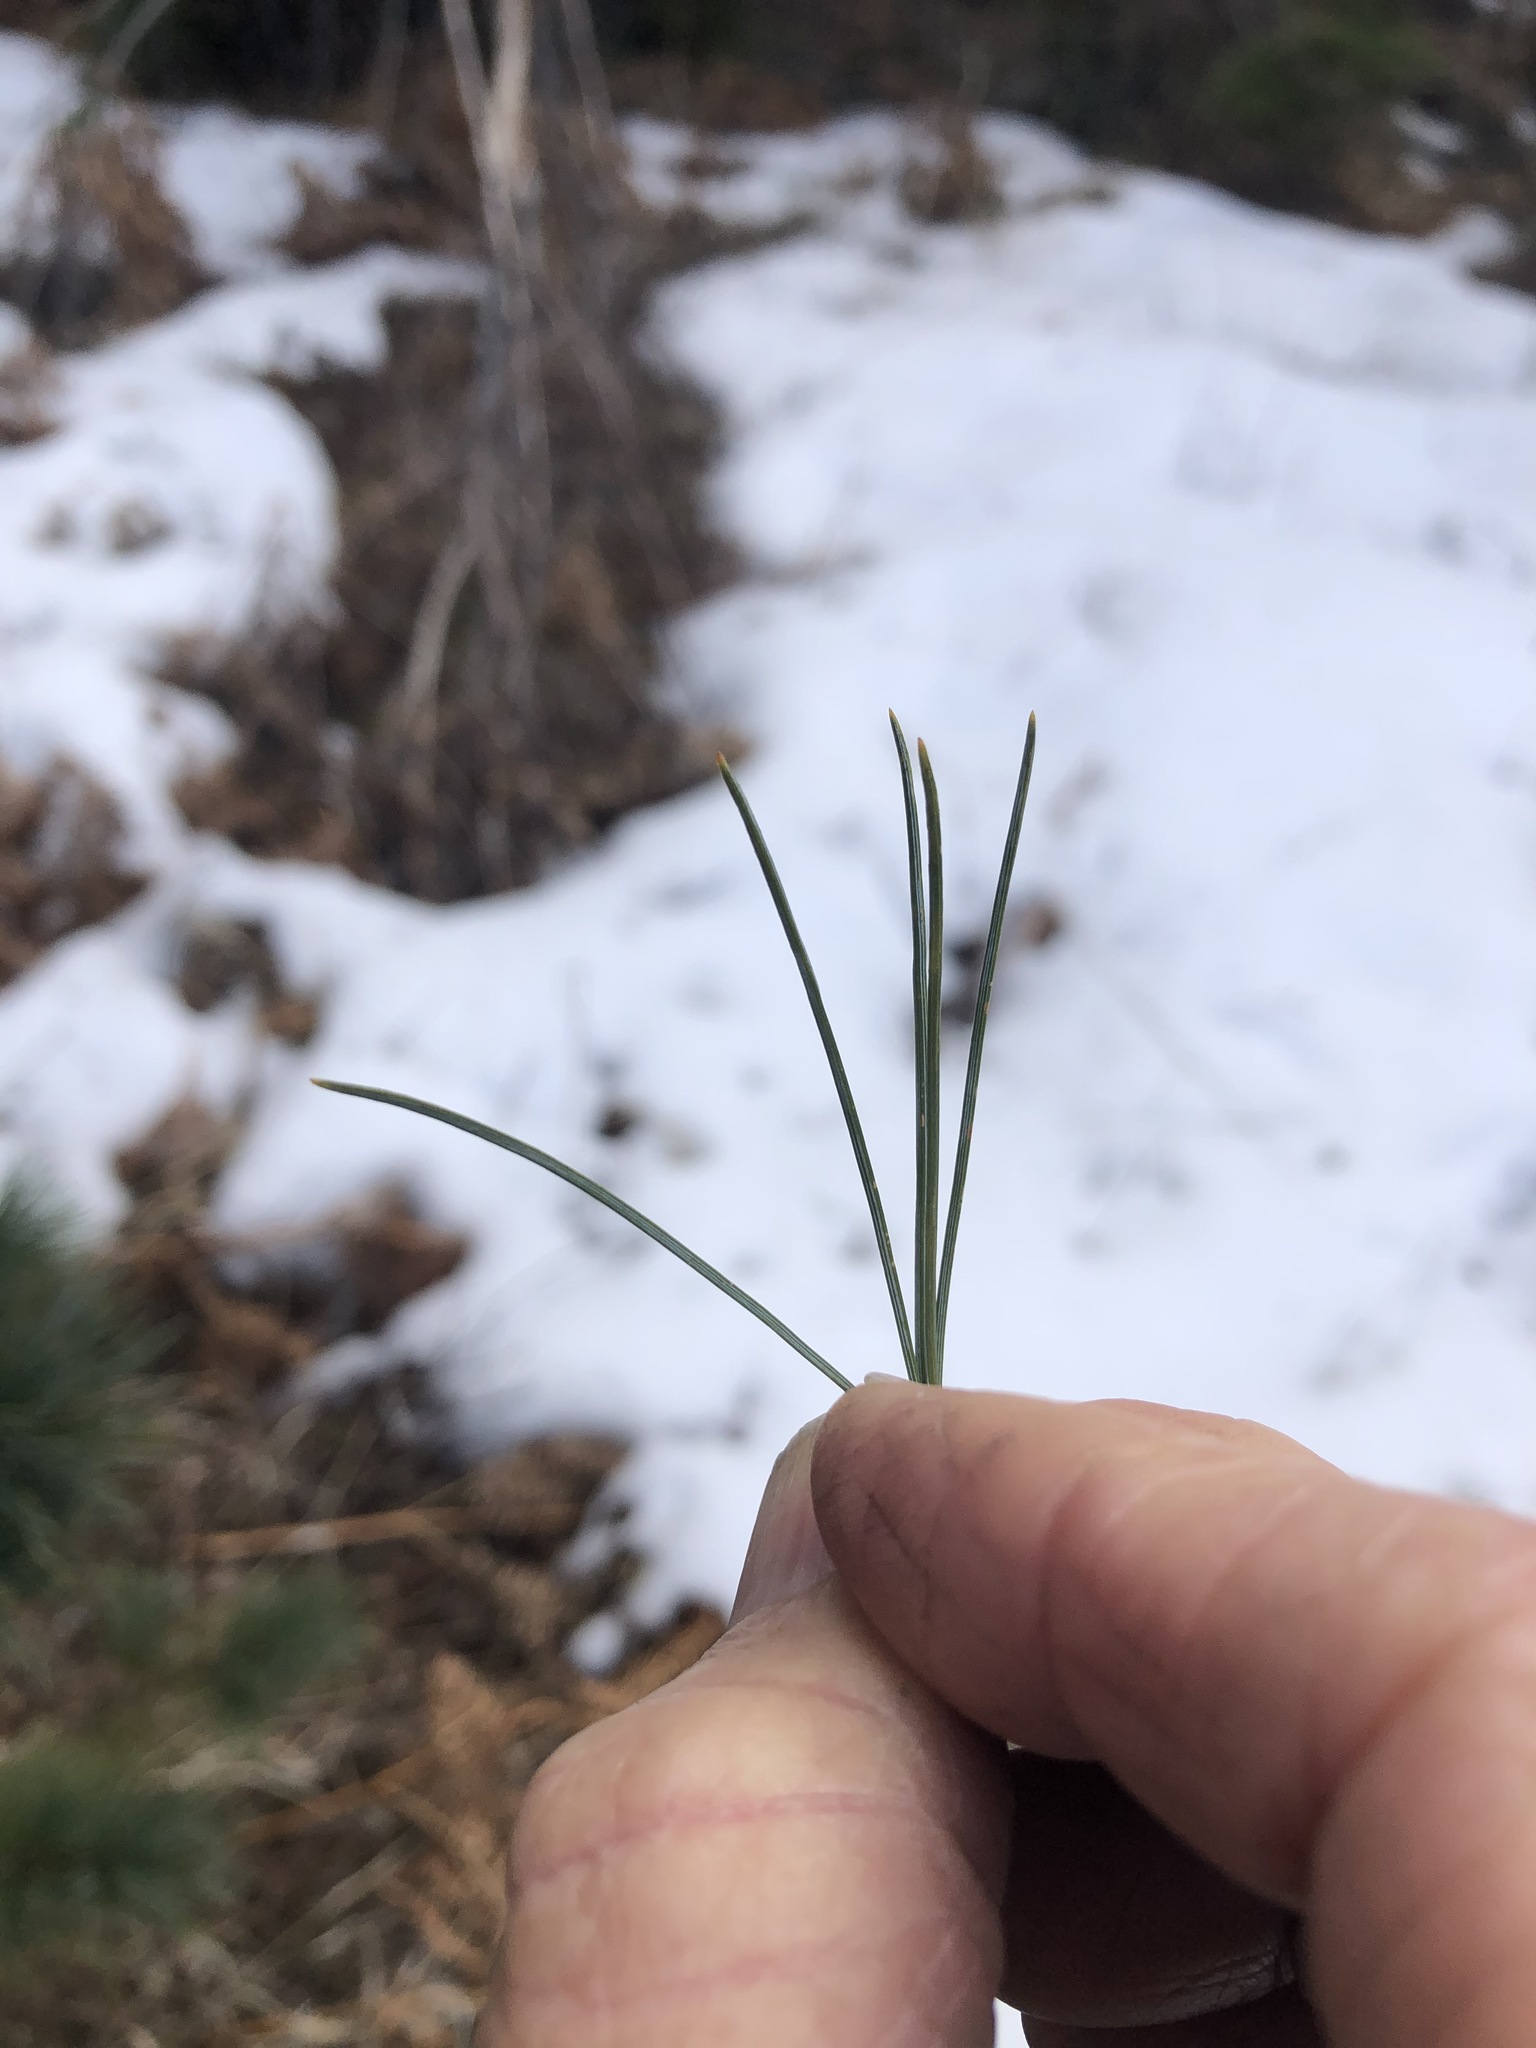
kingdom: Plantae
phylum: Tracheophyta
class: Pinopsida
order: Pinales
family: Pinaceae
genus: Pinus
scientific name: Pinus monticola
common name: Western white pine
